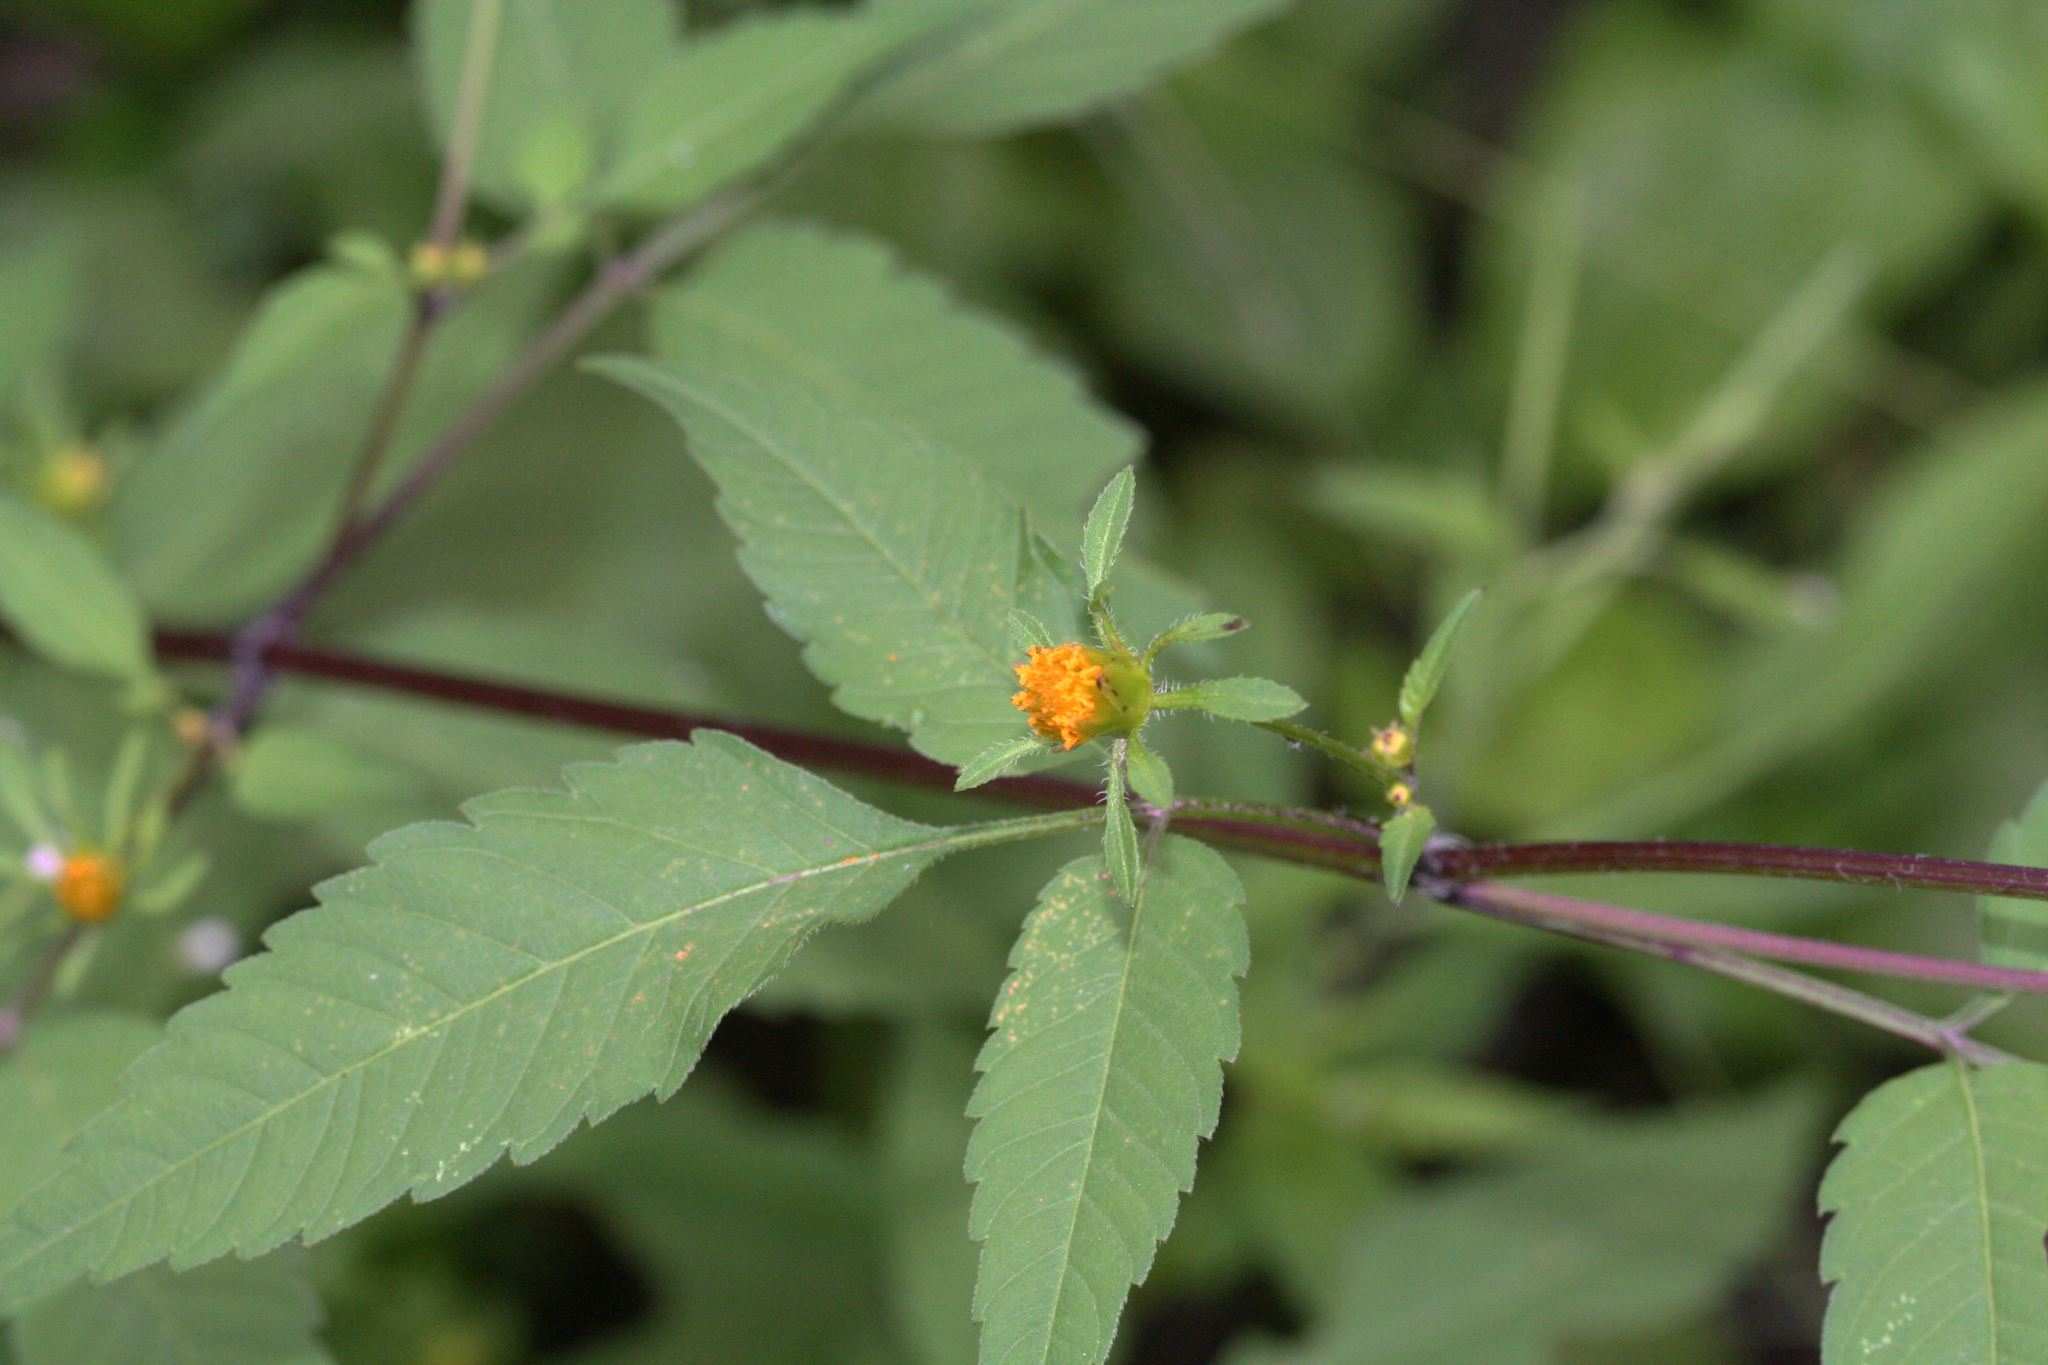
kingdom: Plantae
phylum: Tracheophyta
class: Magnoliopsida
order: Asterales
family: Asteraceae
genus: Bidens
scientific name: Bidens frondosa
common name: Beggarticks
